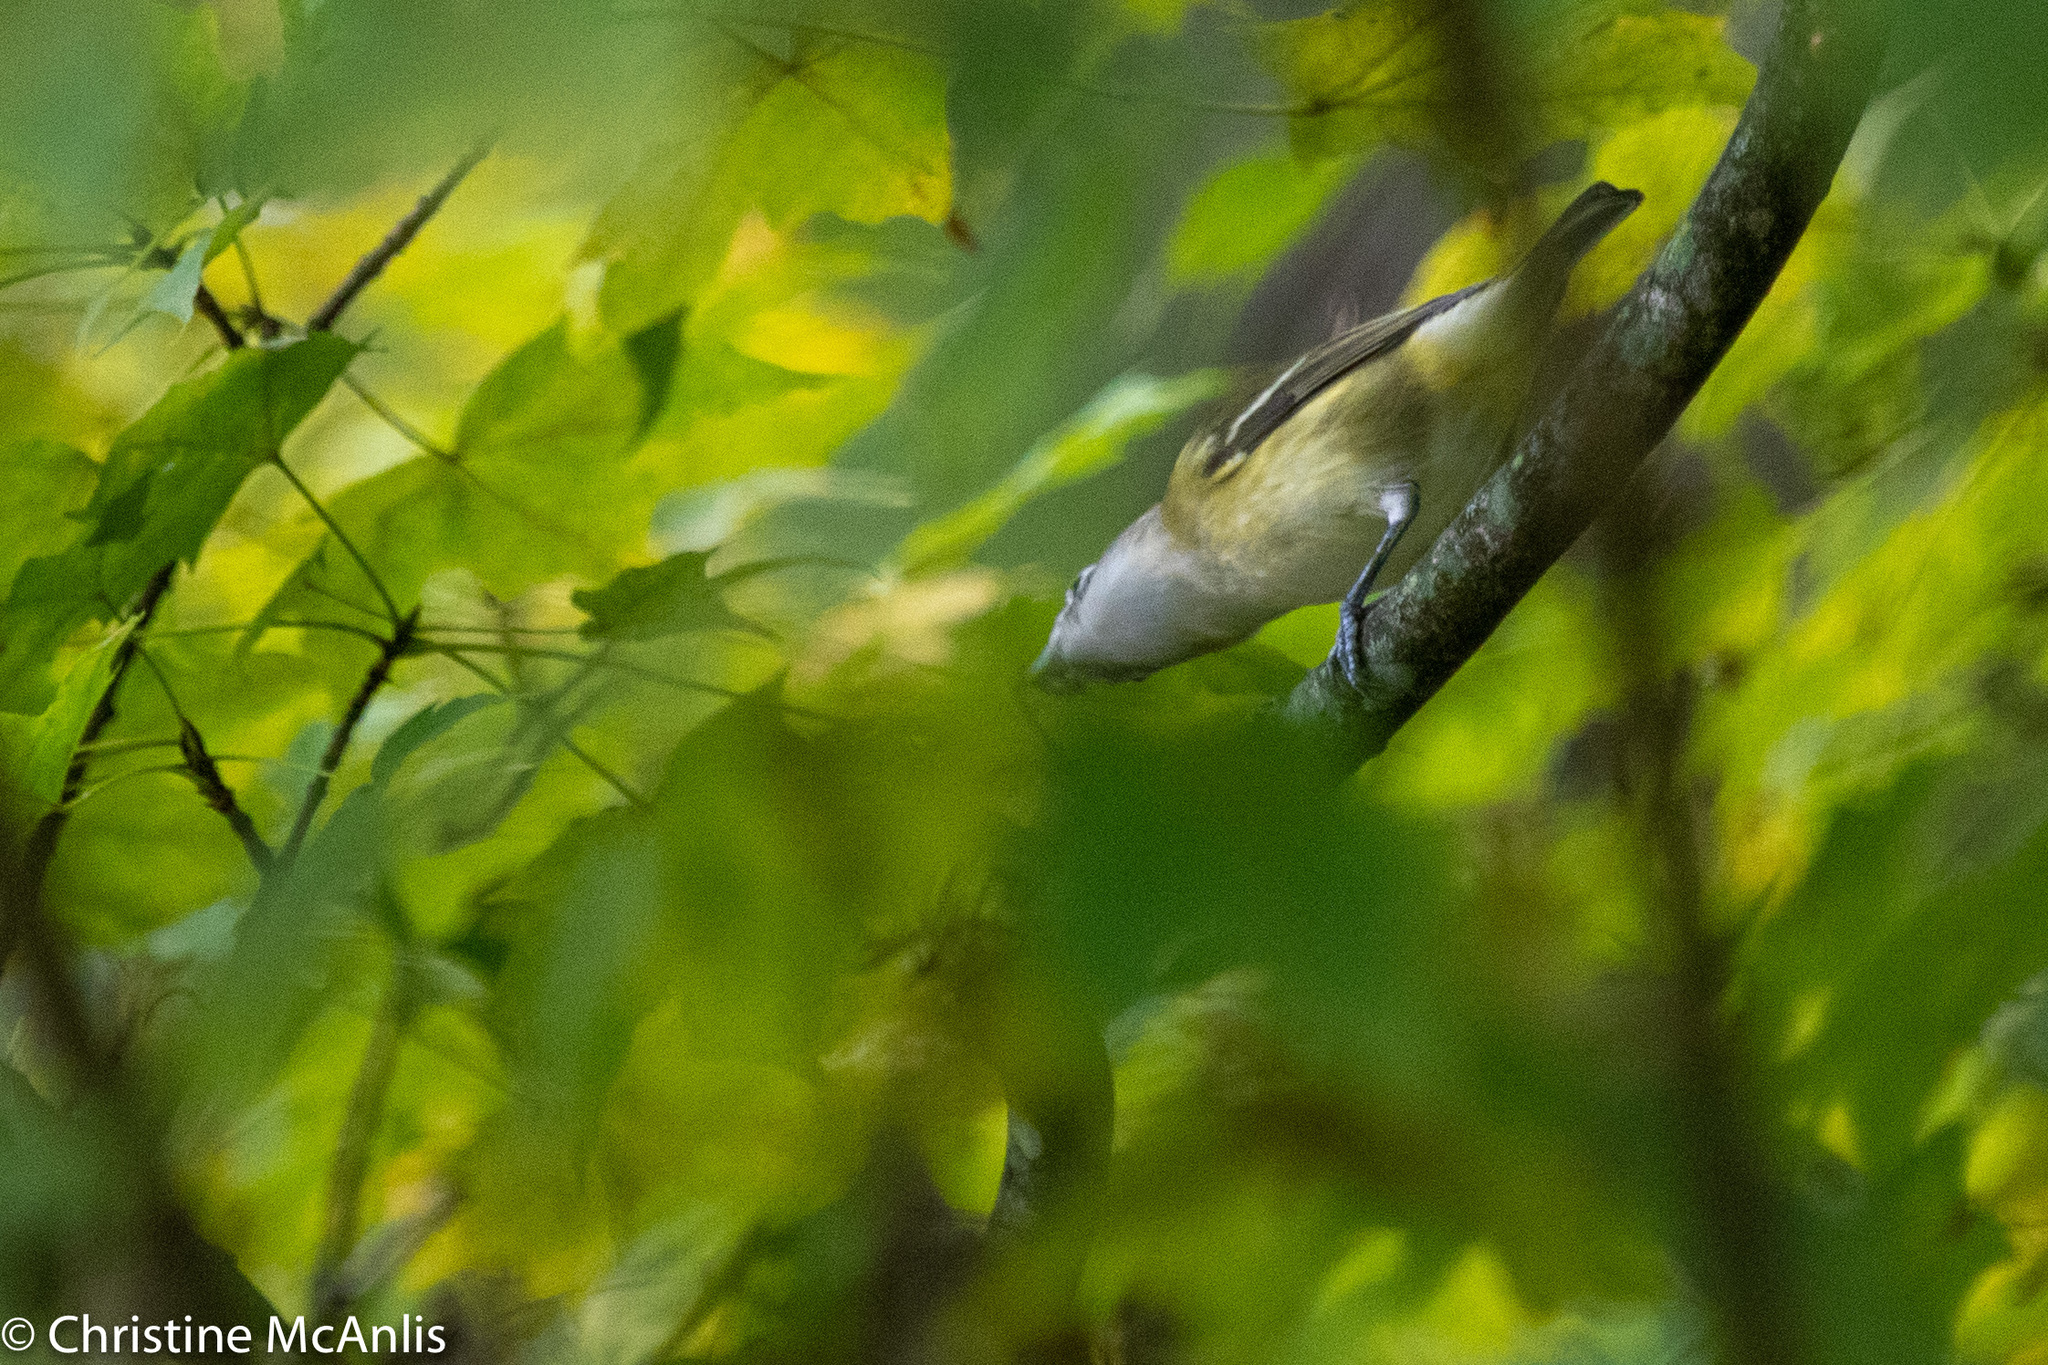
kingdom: Animalia
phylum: Chordata
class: Aves
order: Passeriformes
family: Vireonidae
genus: Vireo
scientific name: Vireo solitarius
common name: Blue-headed vireo
